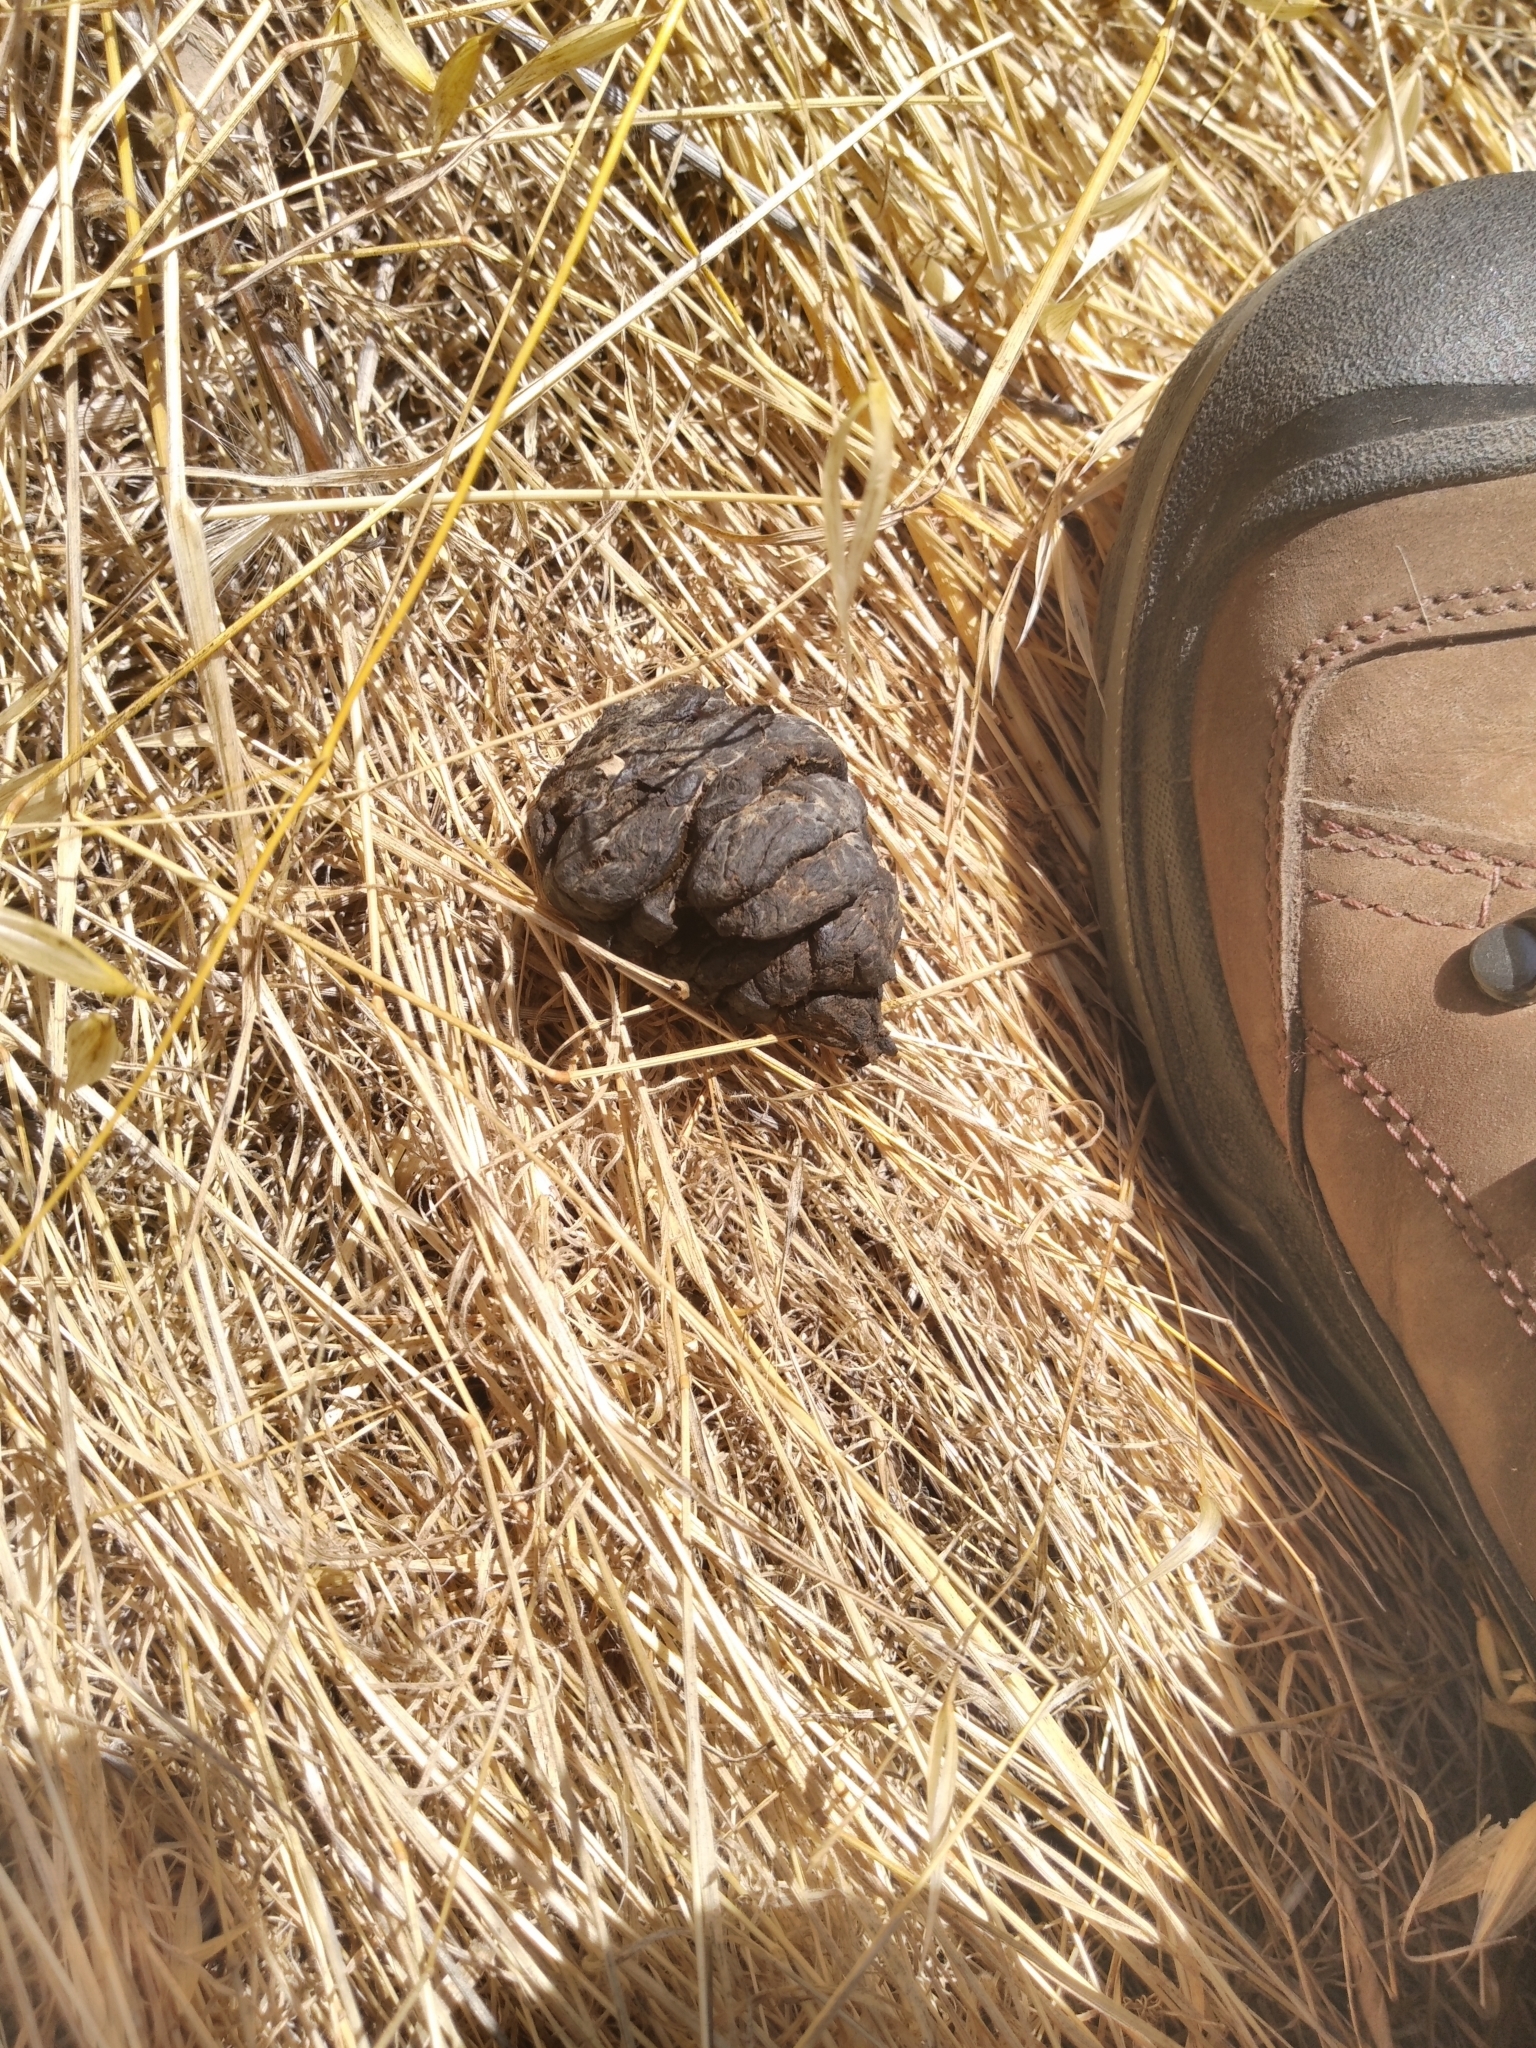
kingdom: Animalia
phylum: Chordata
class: Mammalia
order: Artiodactyla
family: Cervidae
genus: Odocoileus
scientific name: Odocoileus hemionus
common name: Mule deer
